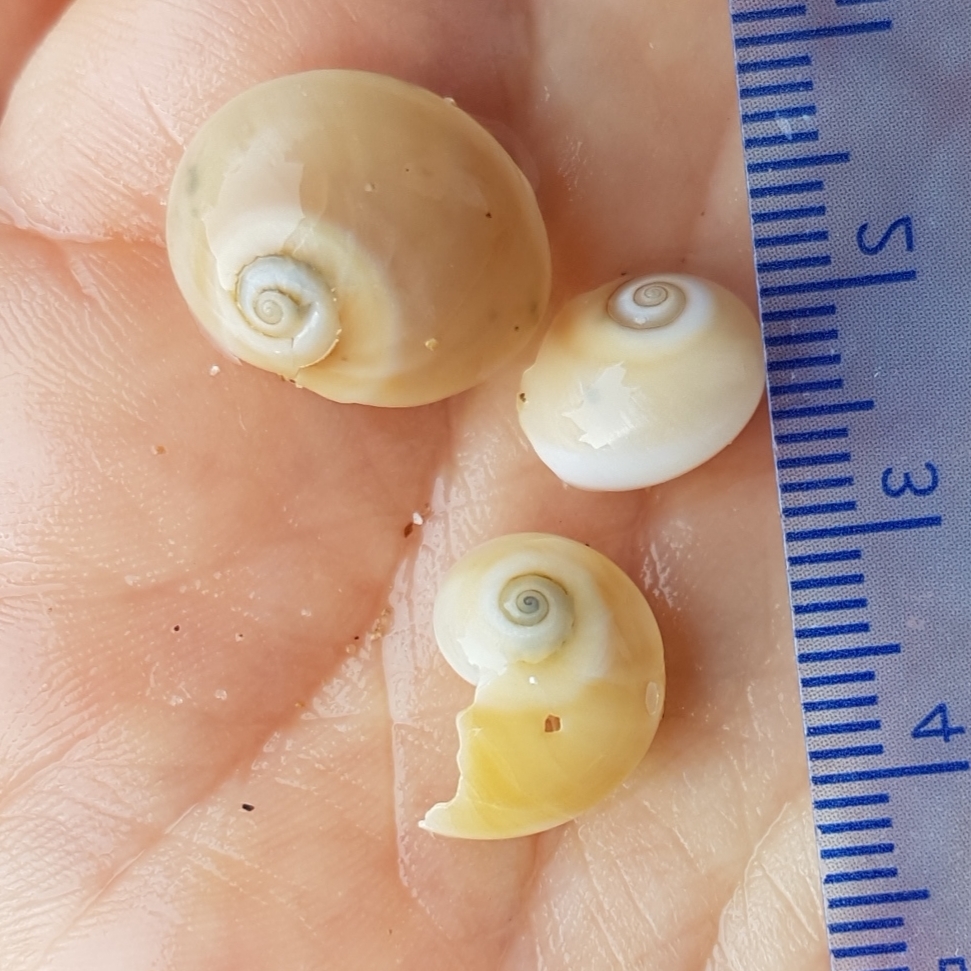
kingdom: Animalia
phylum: Mollusca
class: Gastropoda
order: Littorinimorpha
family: Naticidae
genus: Neverita
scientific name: Neverita josephinia
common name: Josephine's moonsnail
